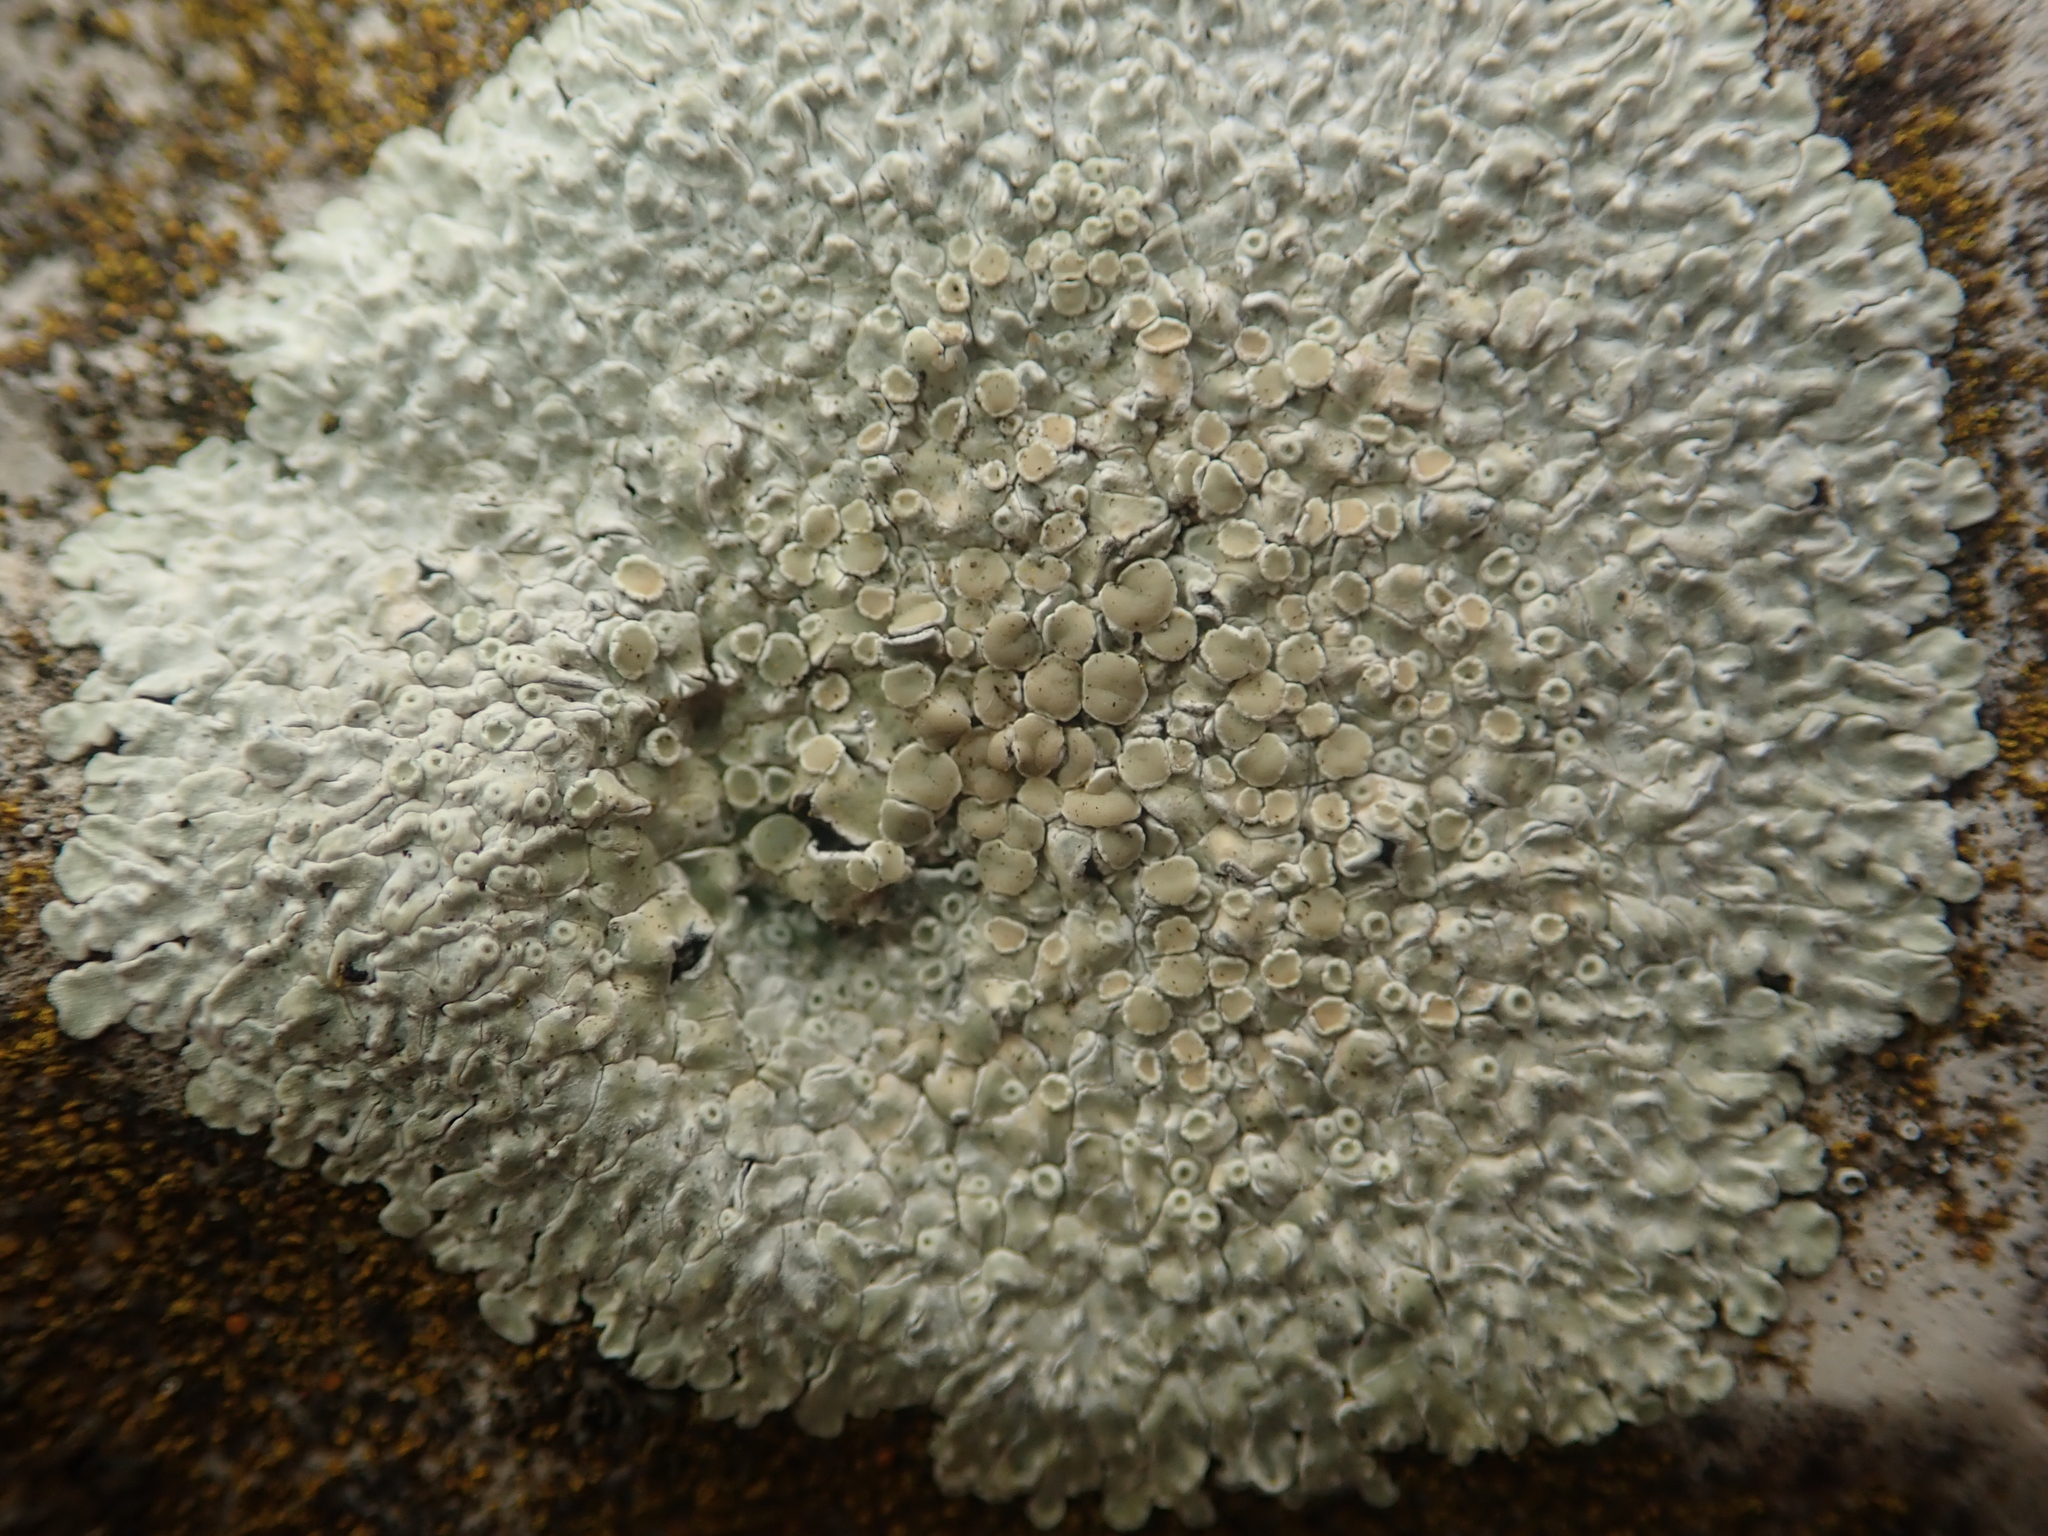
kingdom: Fungi
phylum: Ascomycota
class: Lecanoromycetes
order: Lecanorales
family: Lecanoraceae
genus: Protoparmeliopsis
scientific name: Protoparmeliopsis muralis
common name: Stonewall rim lichen
